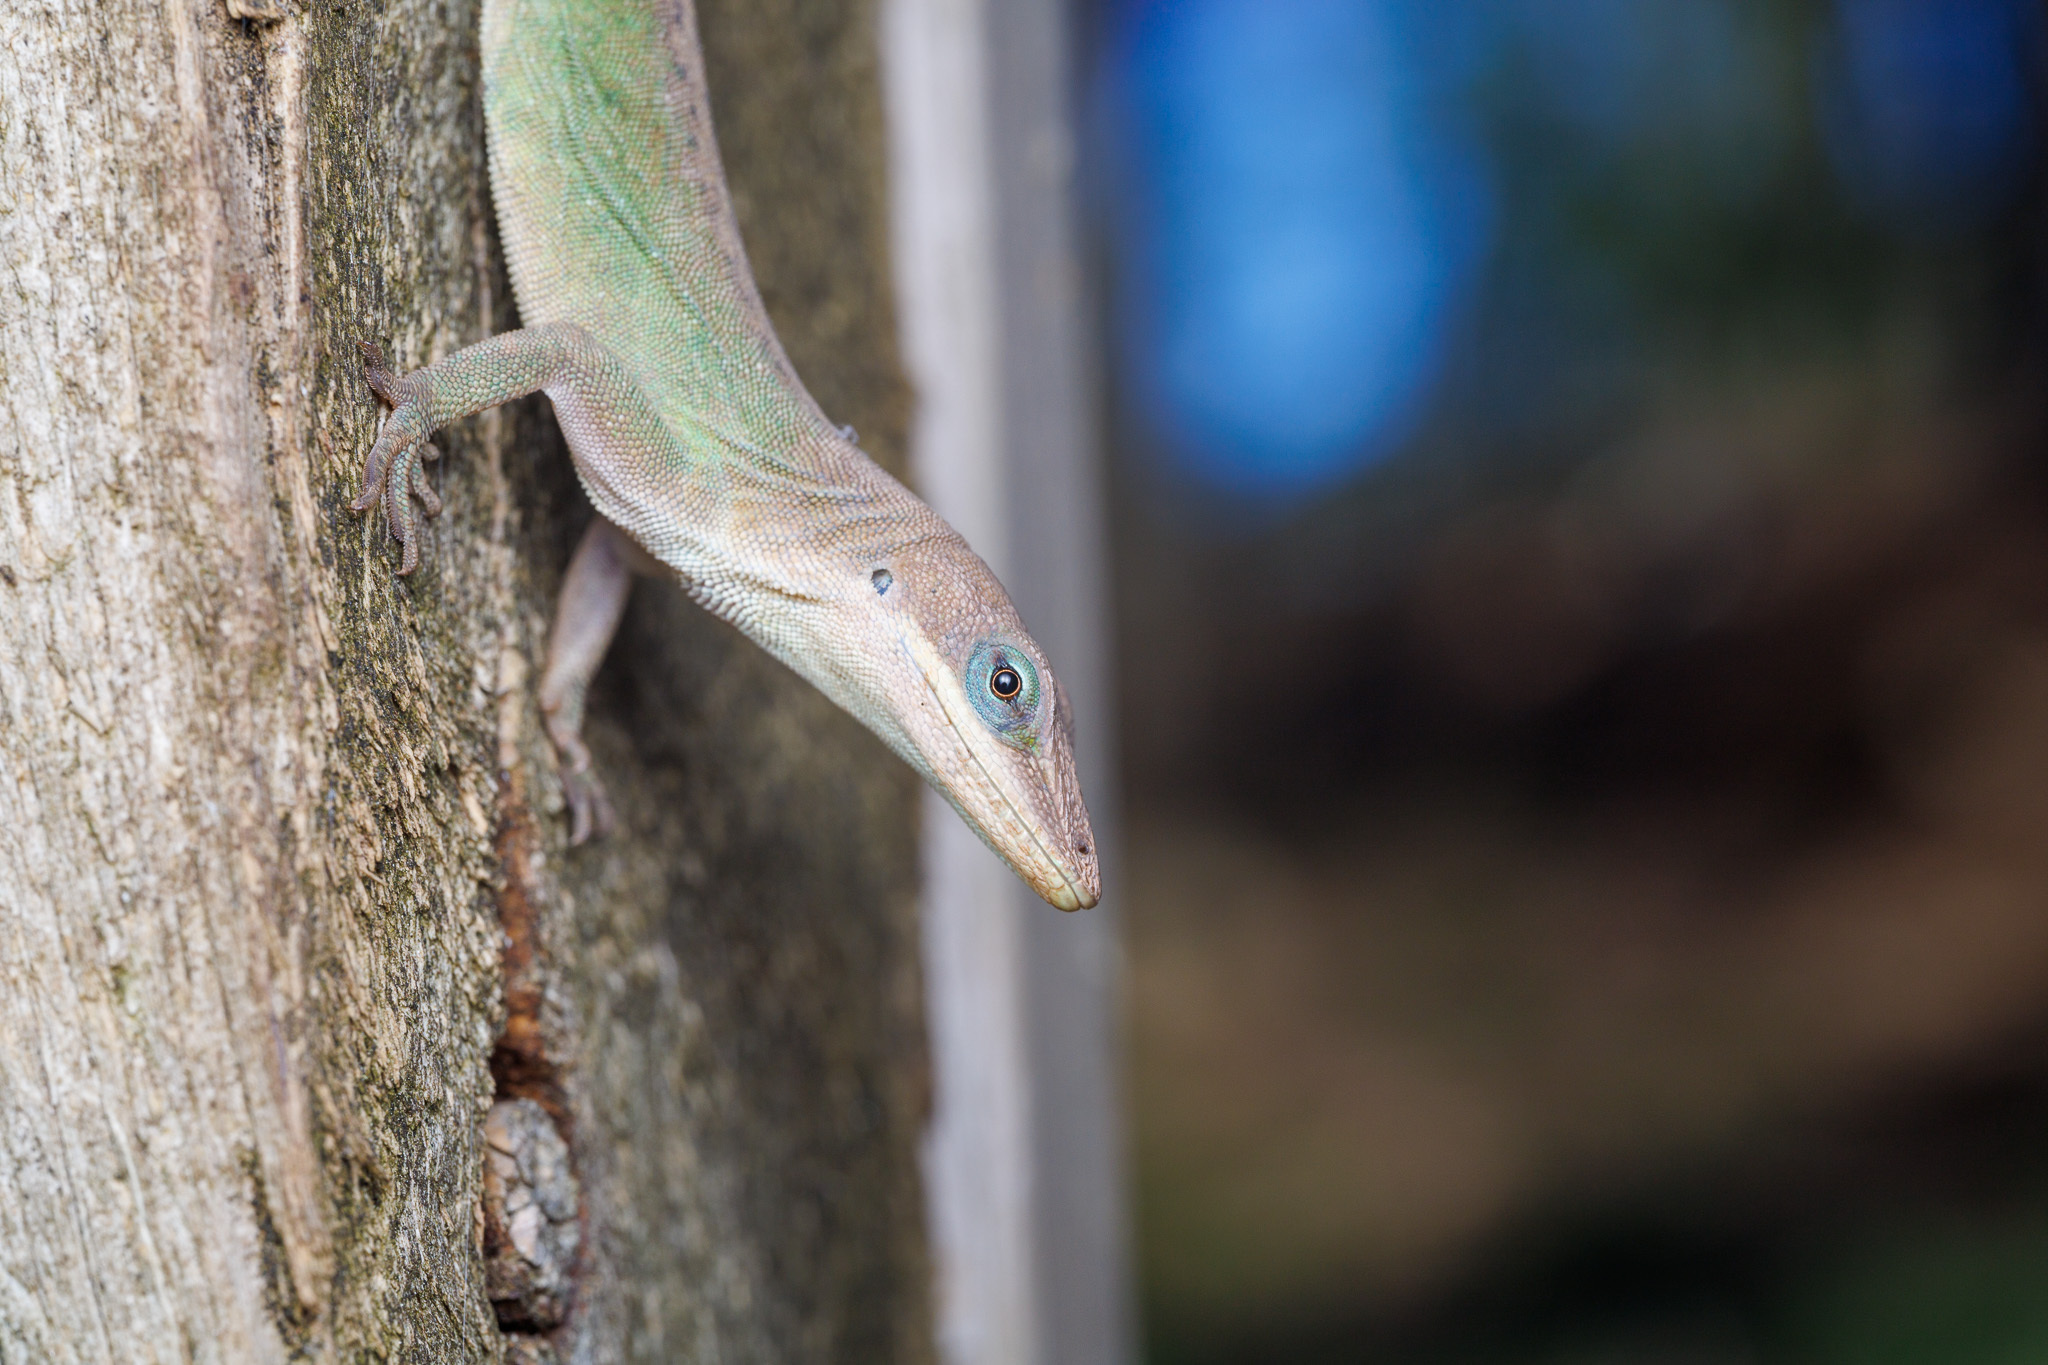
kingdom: Animalia
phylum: Chordata
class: Squamata
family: Dactyloidae
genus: Anolis
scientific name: Anolis carolinensis
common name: Green anole
